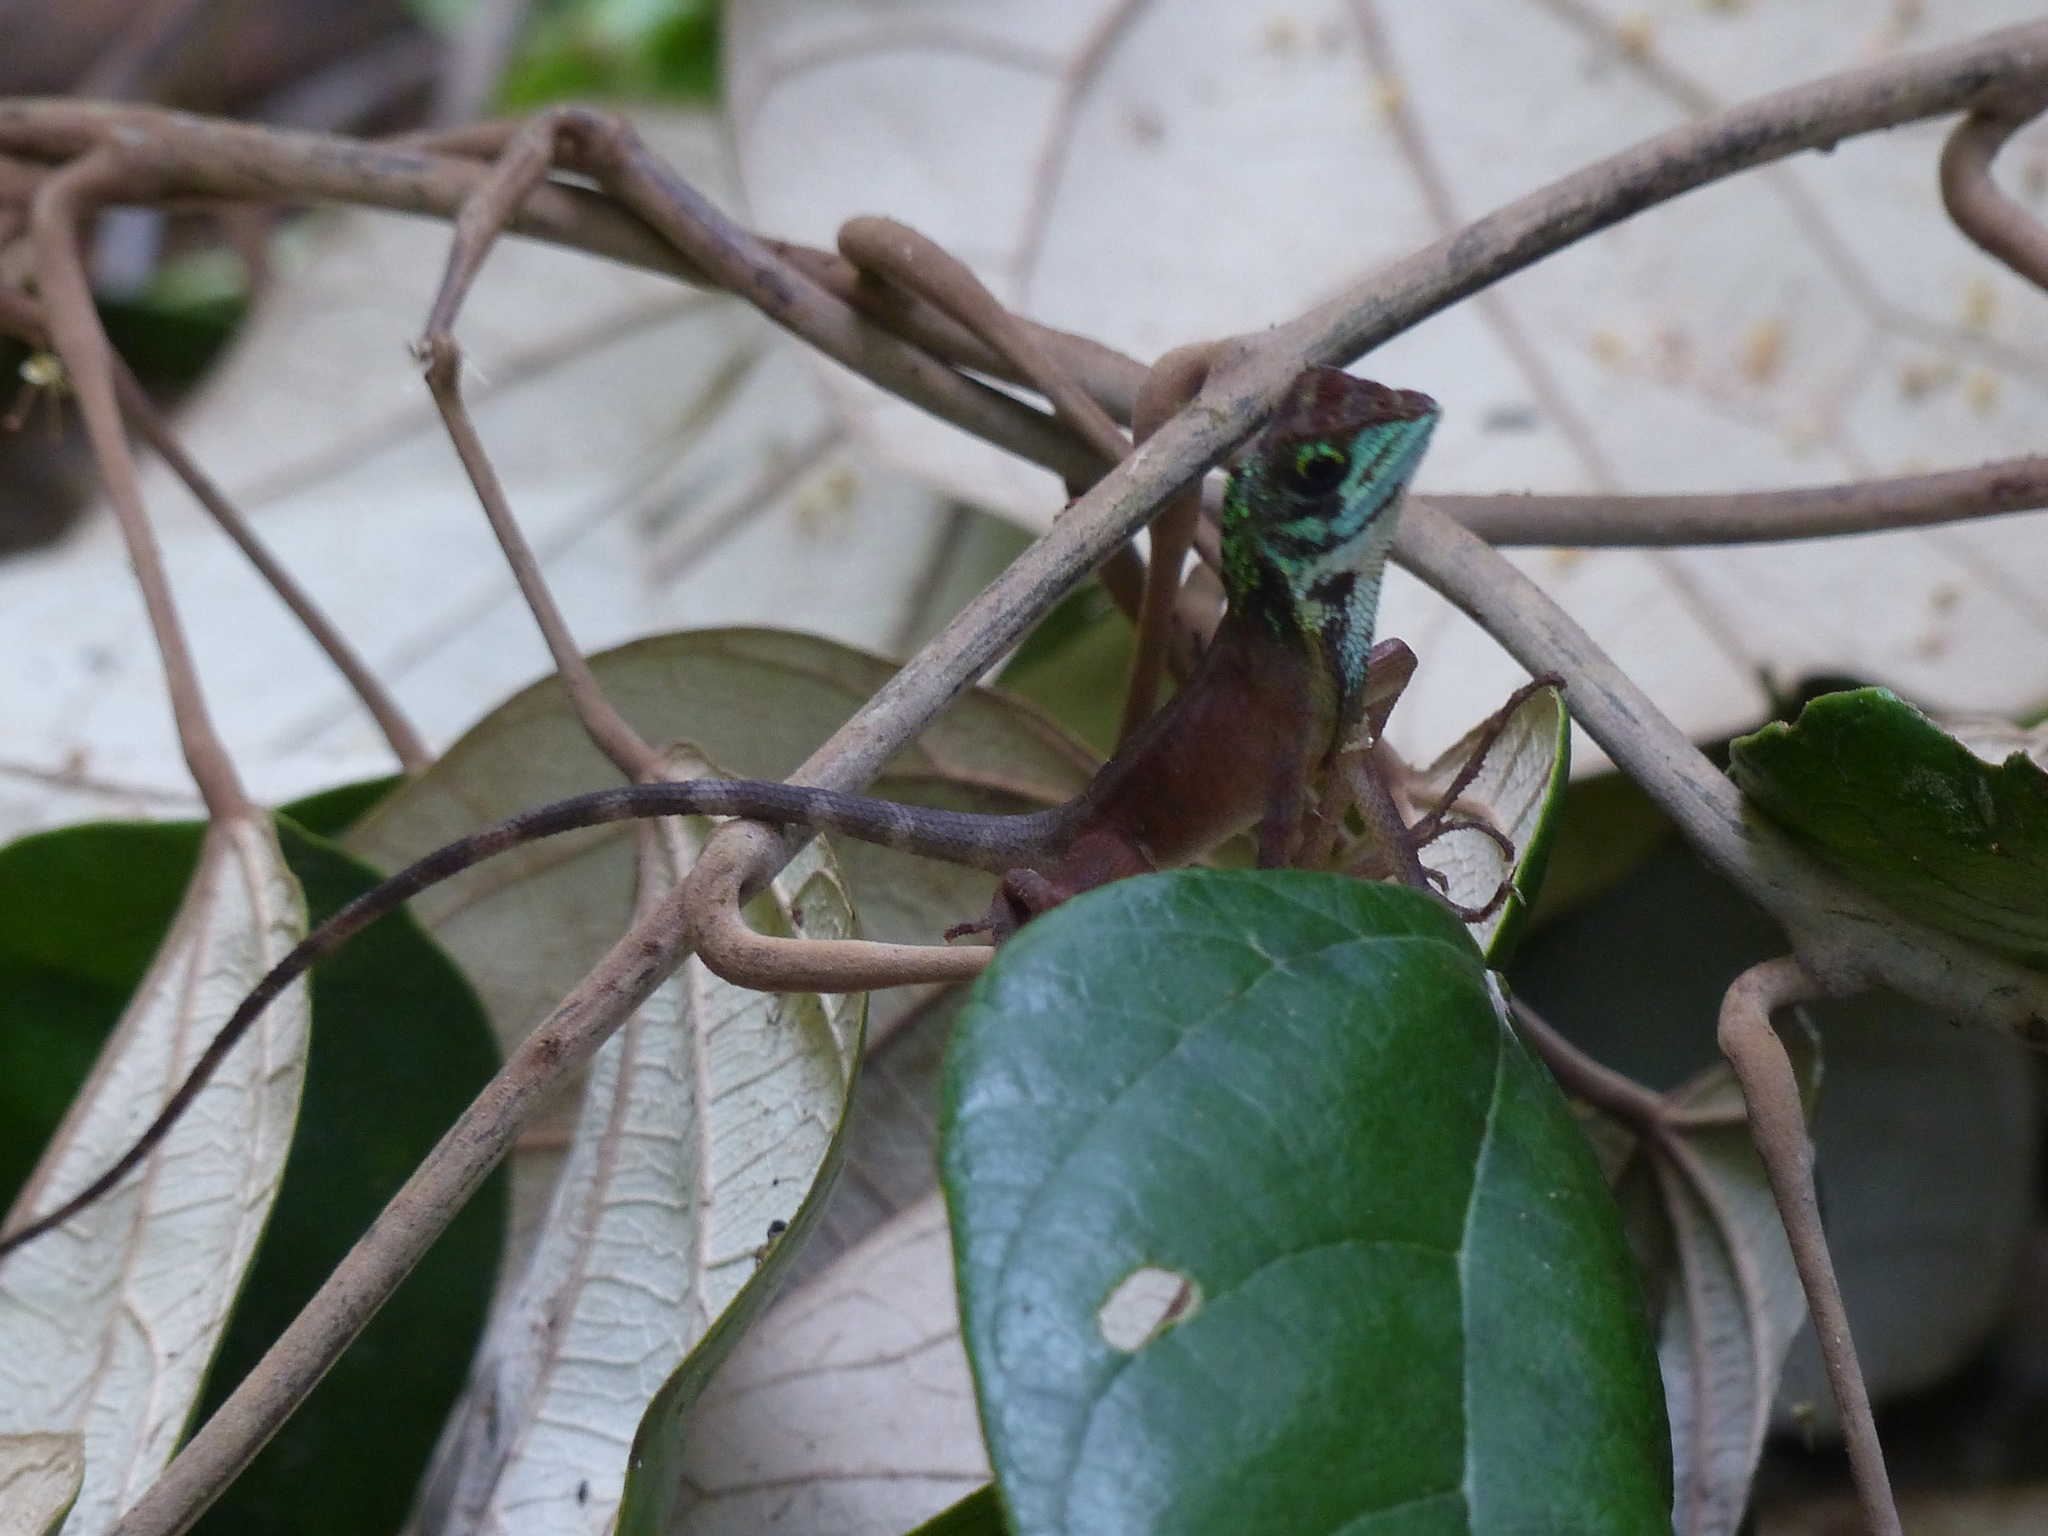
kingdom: Animalia
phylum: Chordata
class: Squamata
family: Agamidae
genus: Otocryptis
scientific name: Otocryptis wiegmanni
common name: Wiegmann's agama
